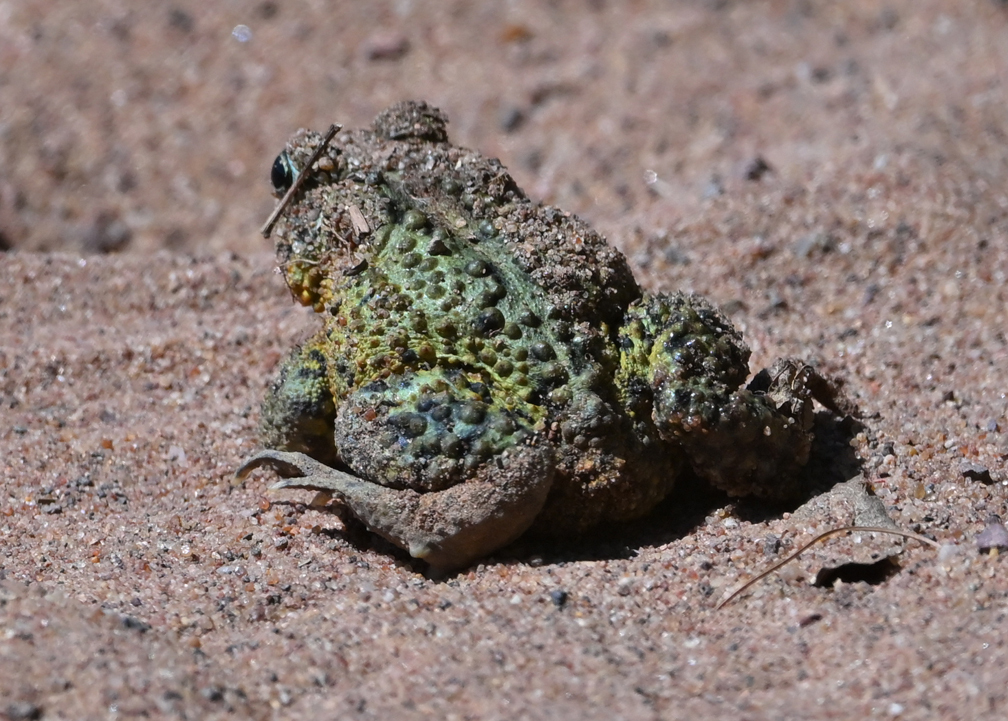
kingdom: Animalia
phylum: Chordata
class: Amphibia
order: Anura
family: Bufonidae
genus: Anaxyrus
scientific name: Anaxyrus americanus
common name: American toad
